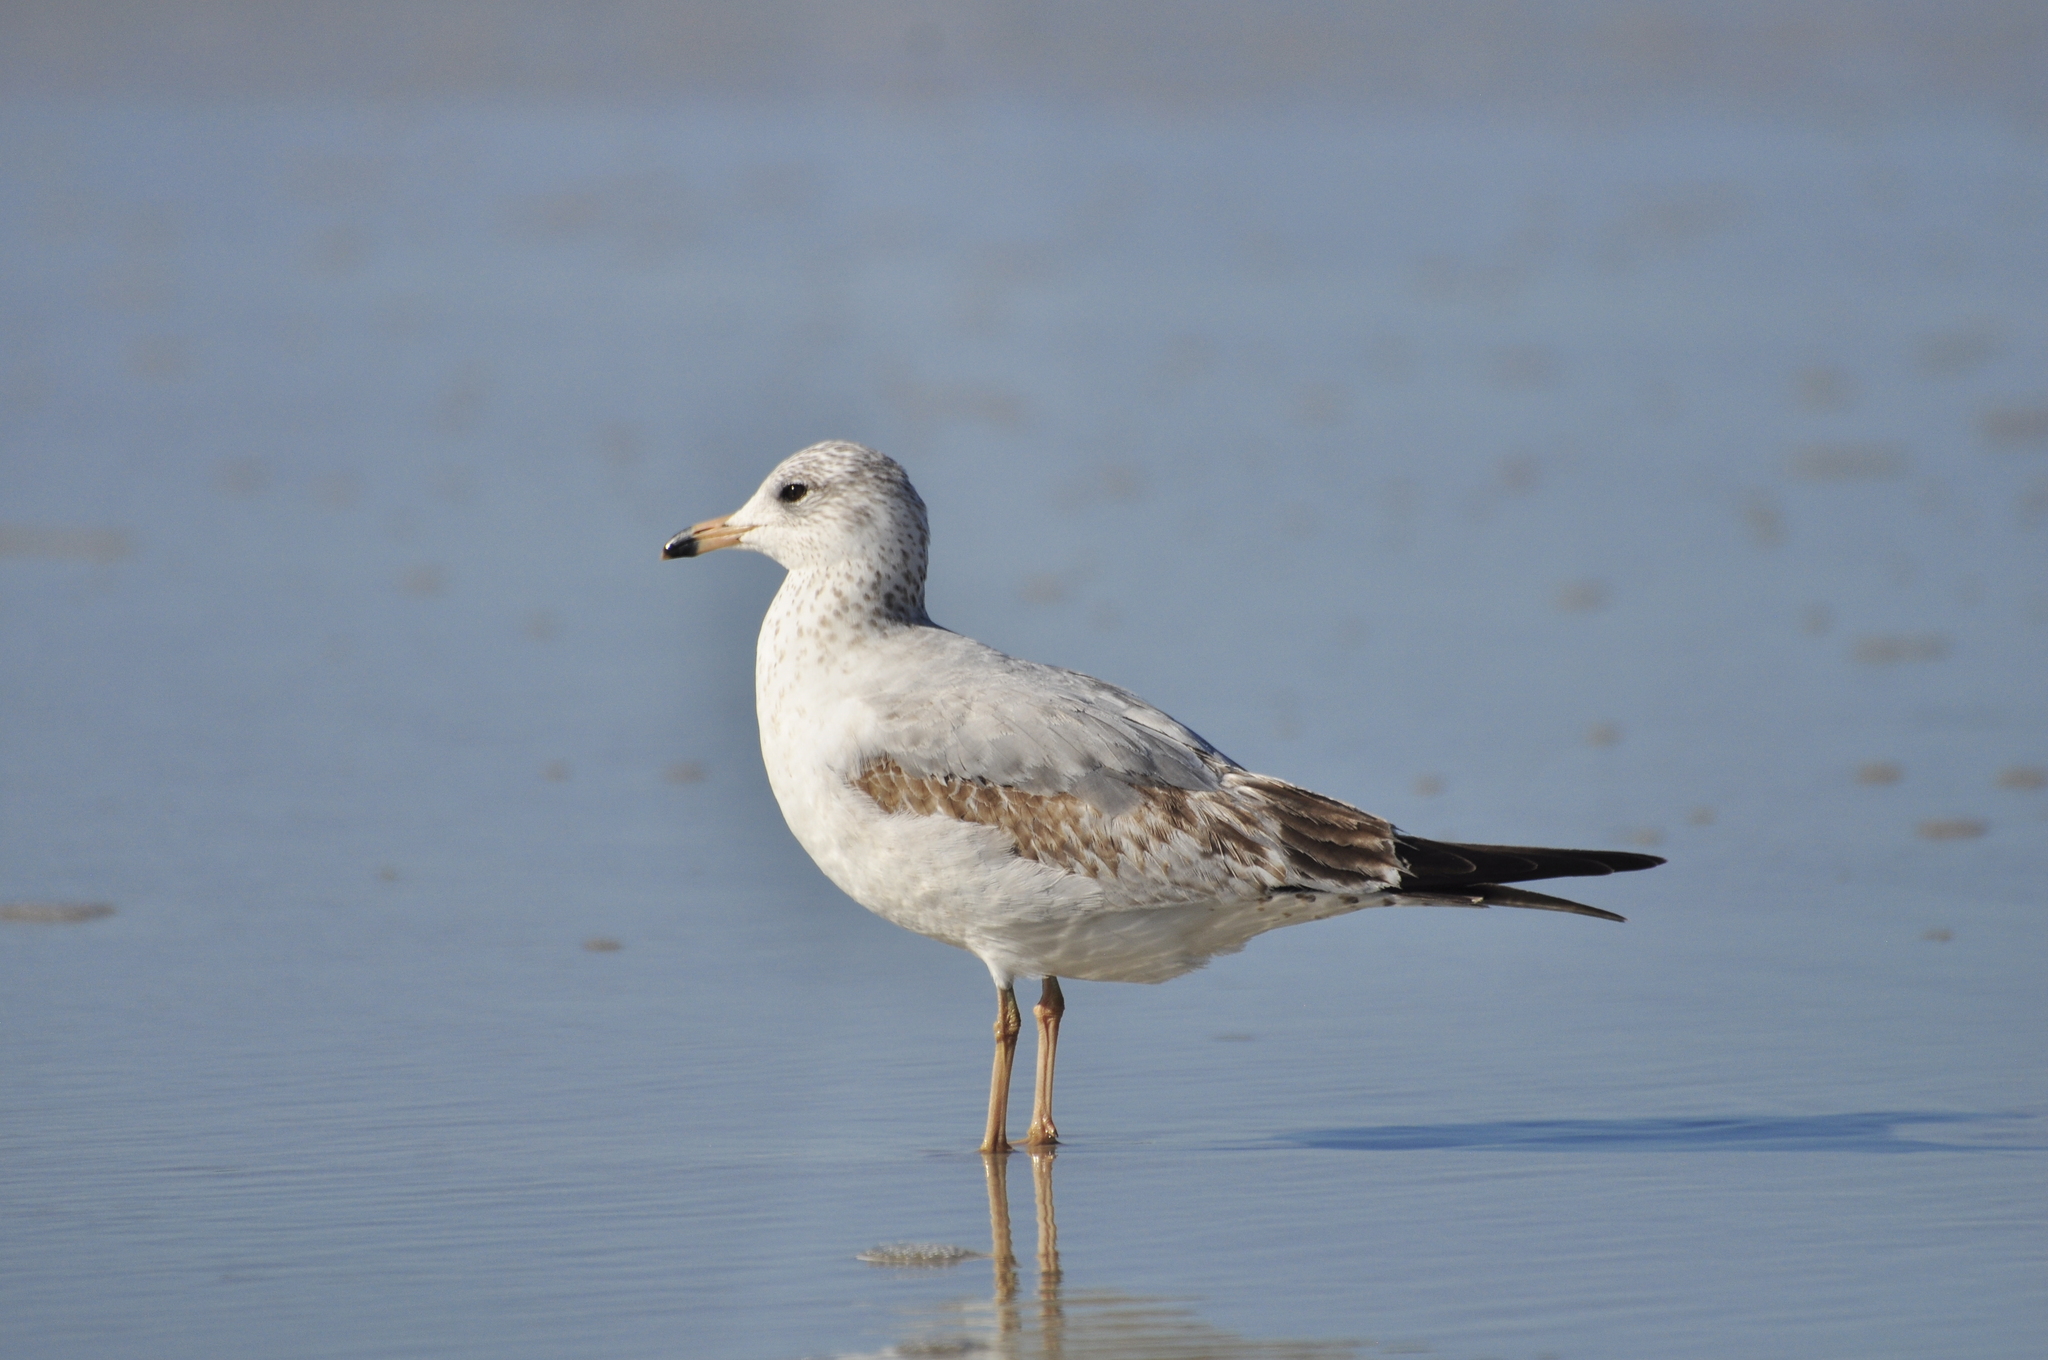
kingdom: Animalia
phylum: Chordata
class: Aves
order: Charadriiformes
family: Laridae
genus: Larus
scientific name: Larus delawarensis
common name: Ring-billed gull
